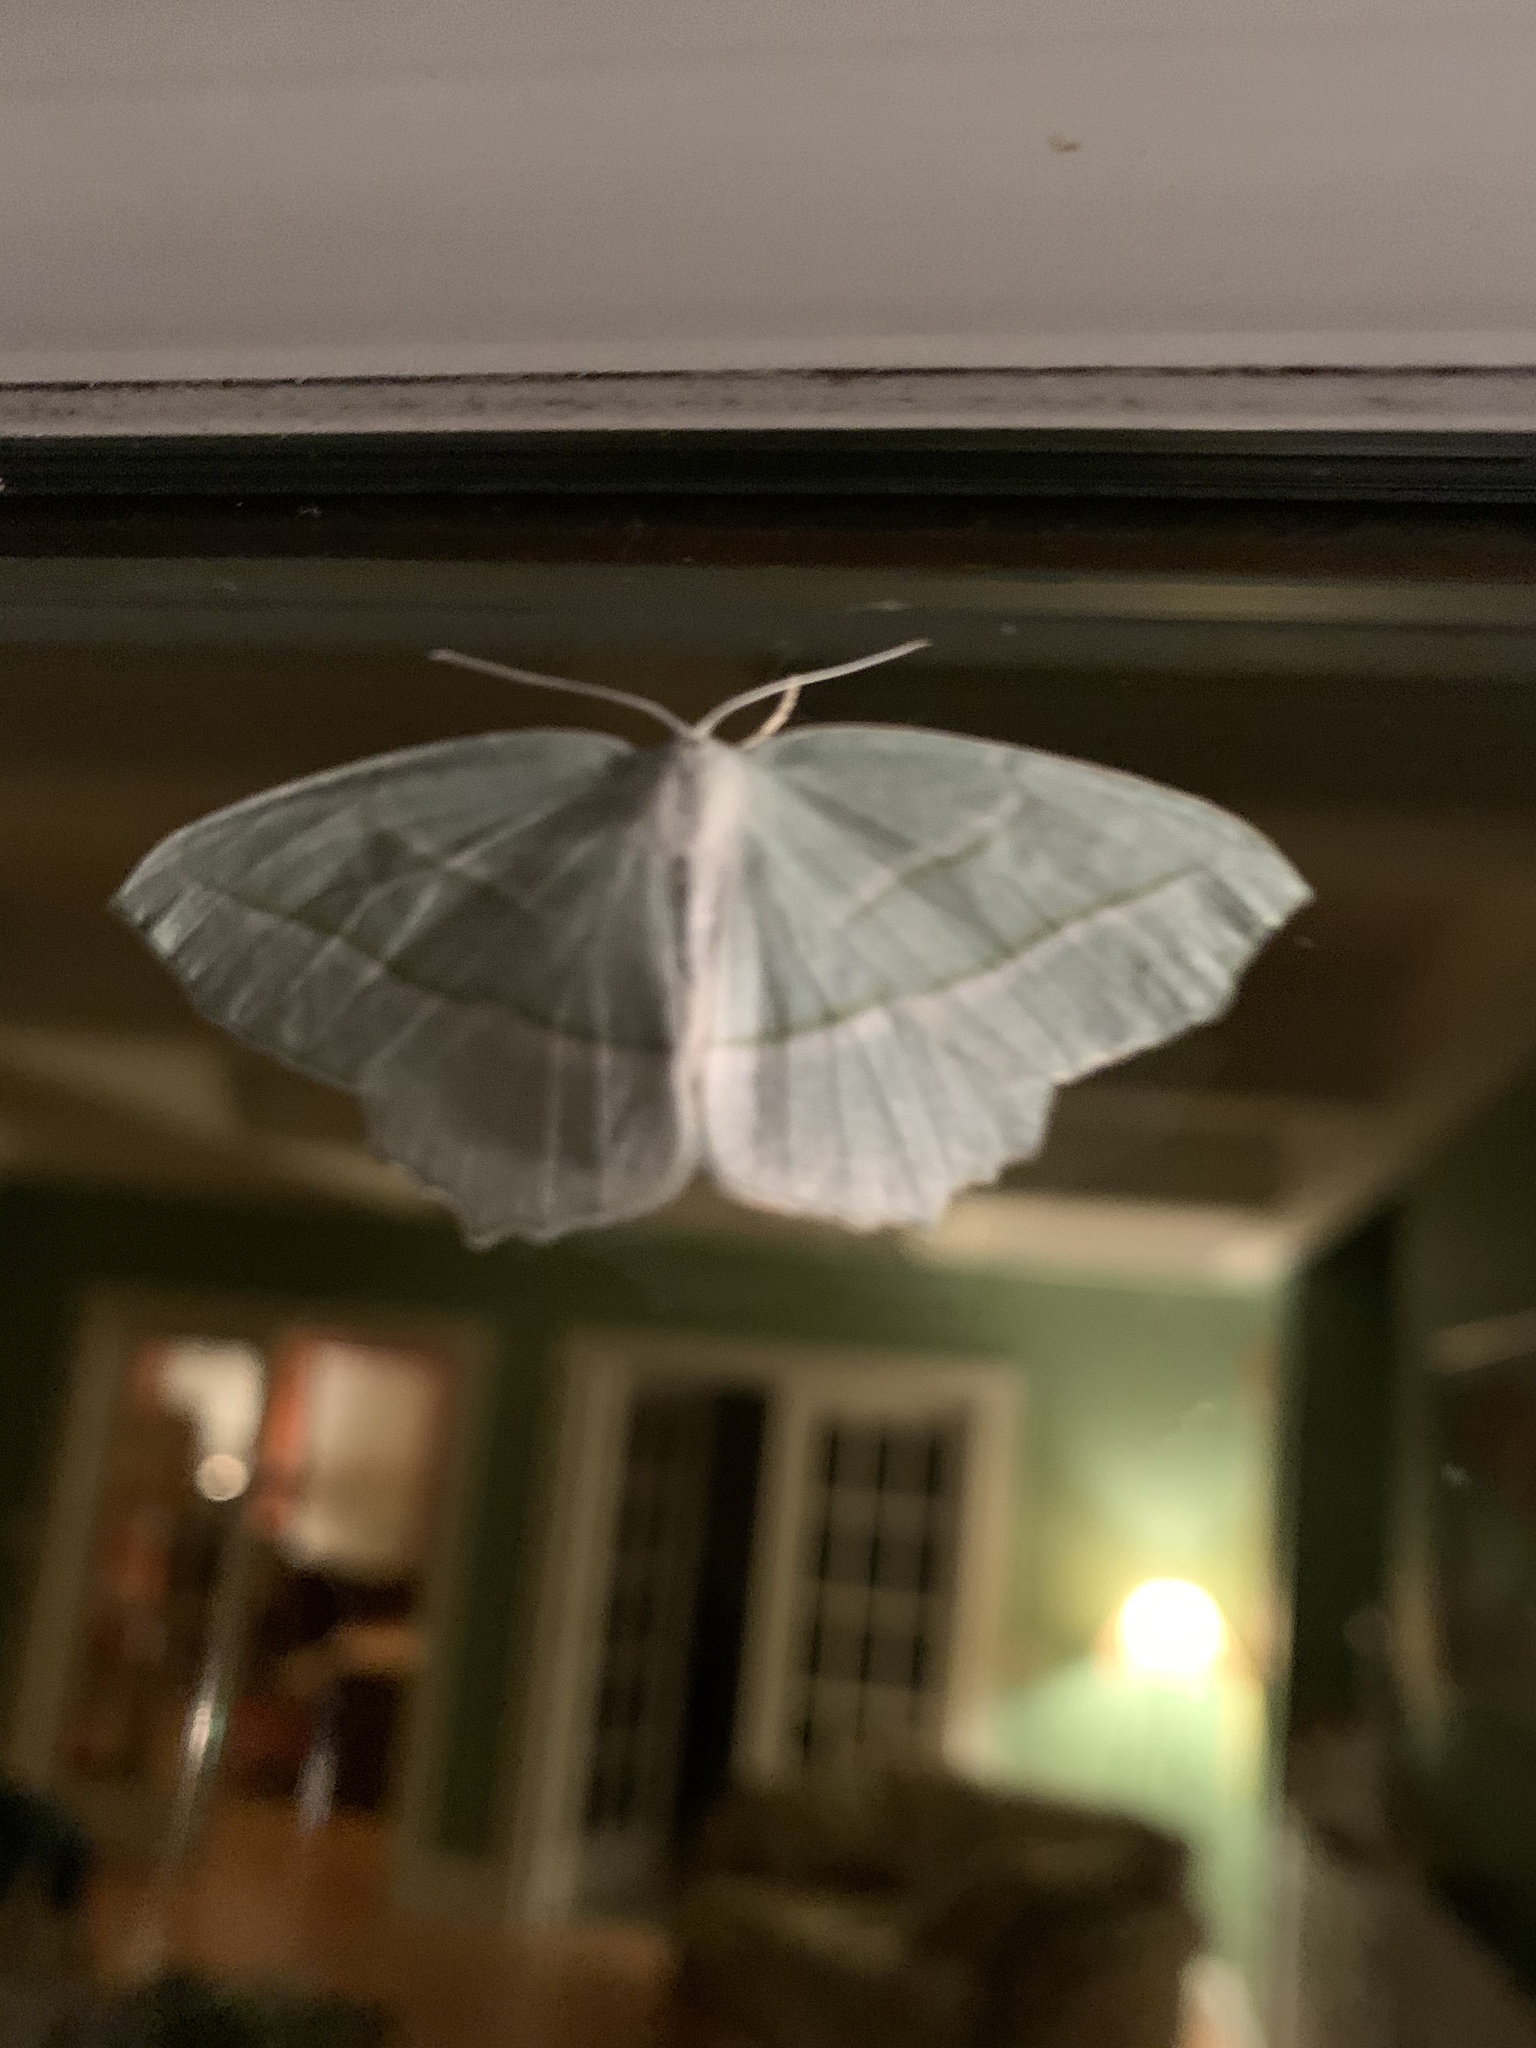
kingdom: Animalia
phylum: Arthropoda
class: Insecta
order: Lepidoptera
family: Geometridae
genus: Campaea
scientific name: Campaea perlata
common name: Fringed looper
